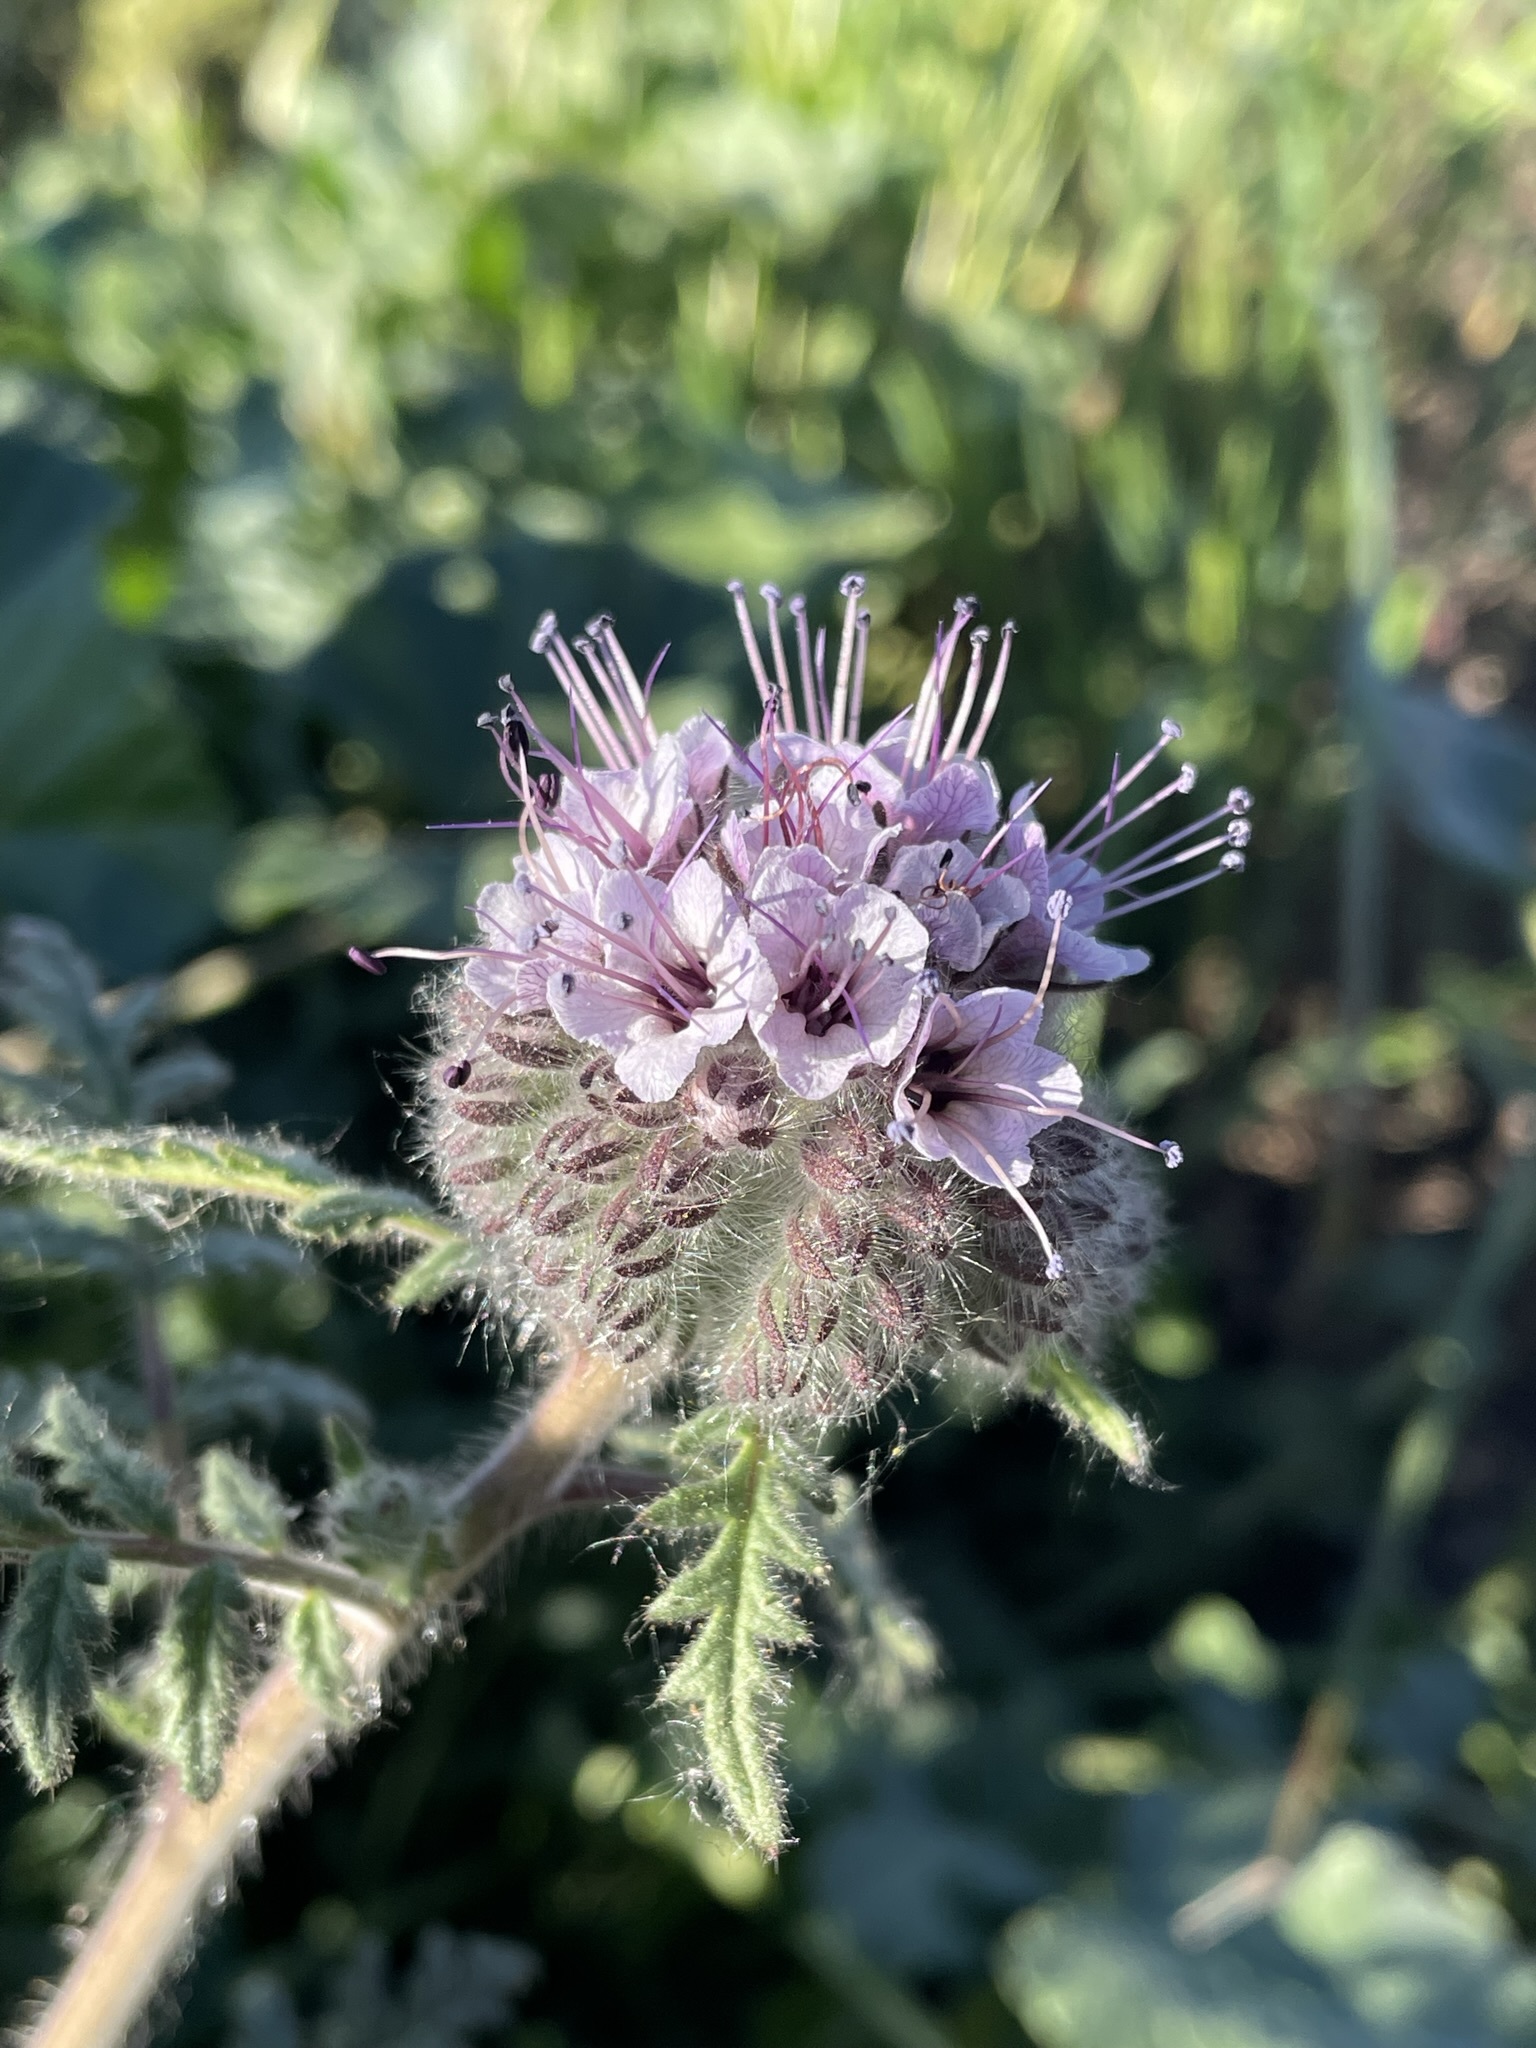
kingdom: Plantae
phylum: Tracheophyta
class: Magnoliopsida
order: Boraginales
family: Hydrophyllaceae
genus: Phacelia
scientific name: Phacelia hubbyi
